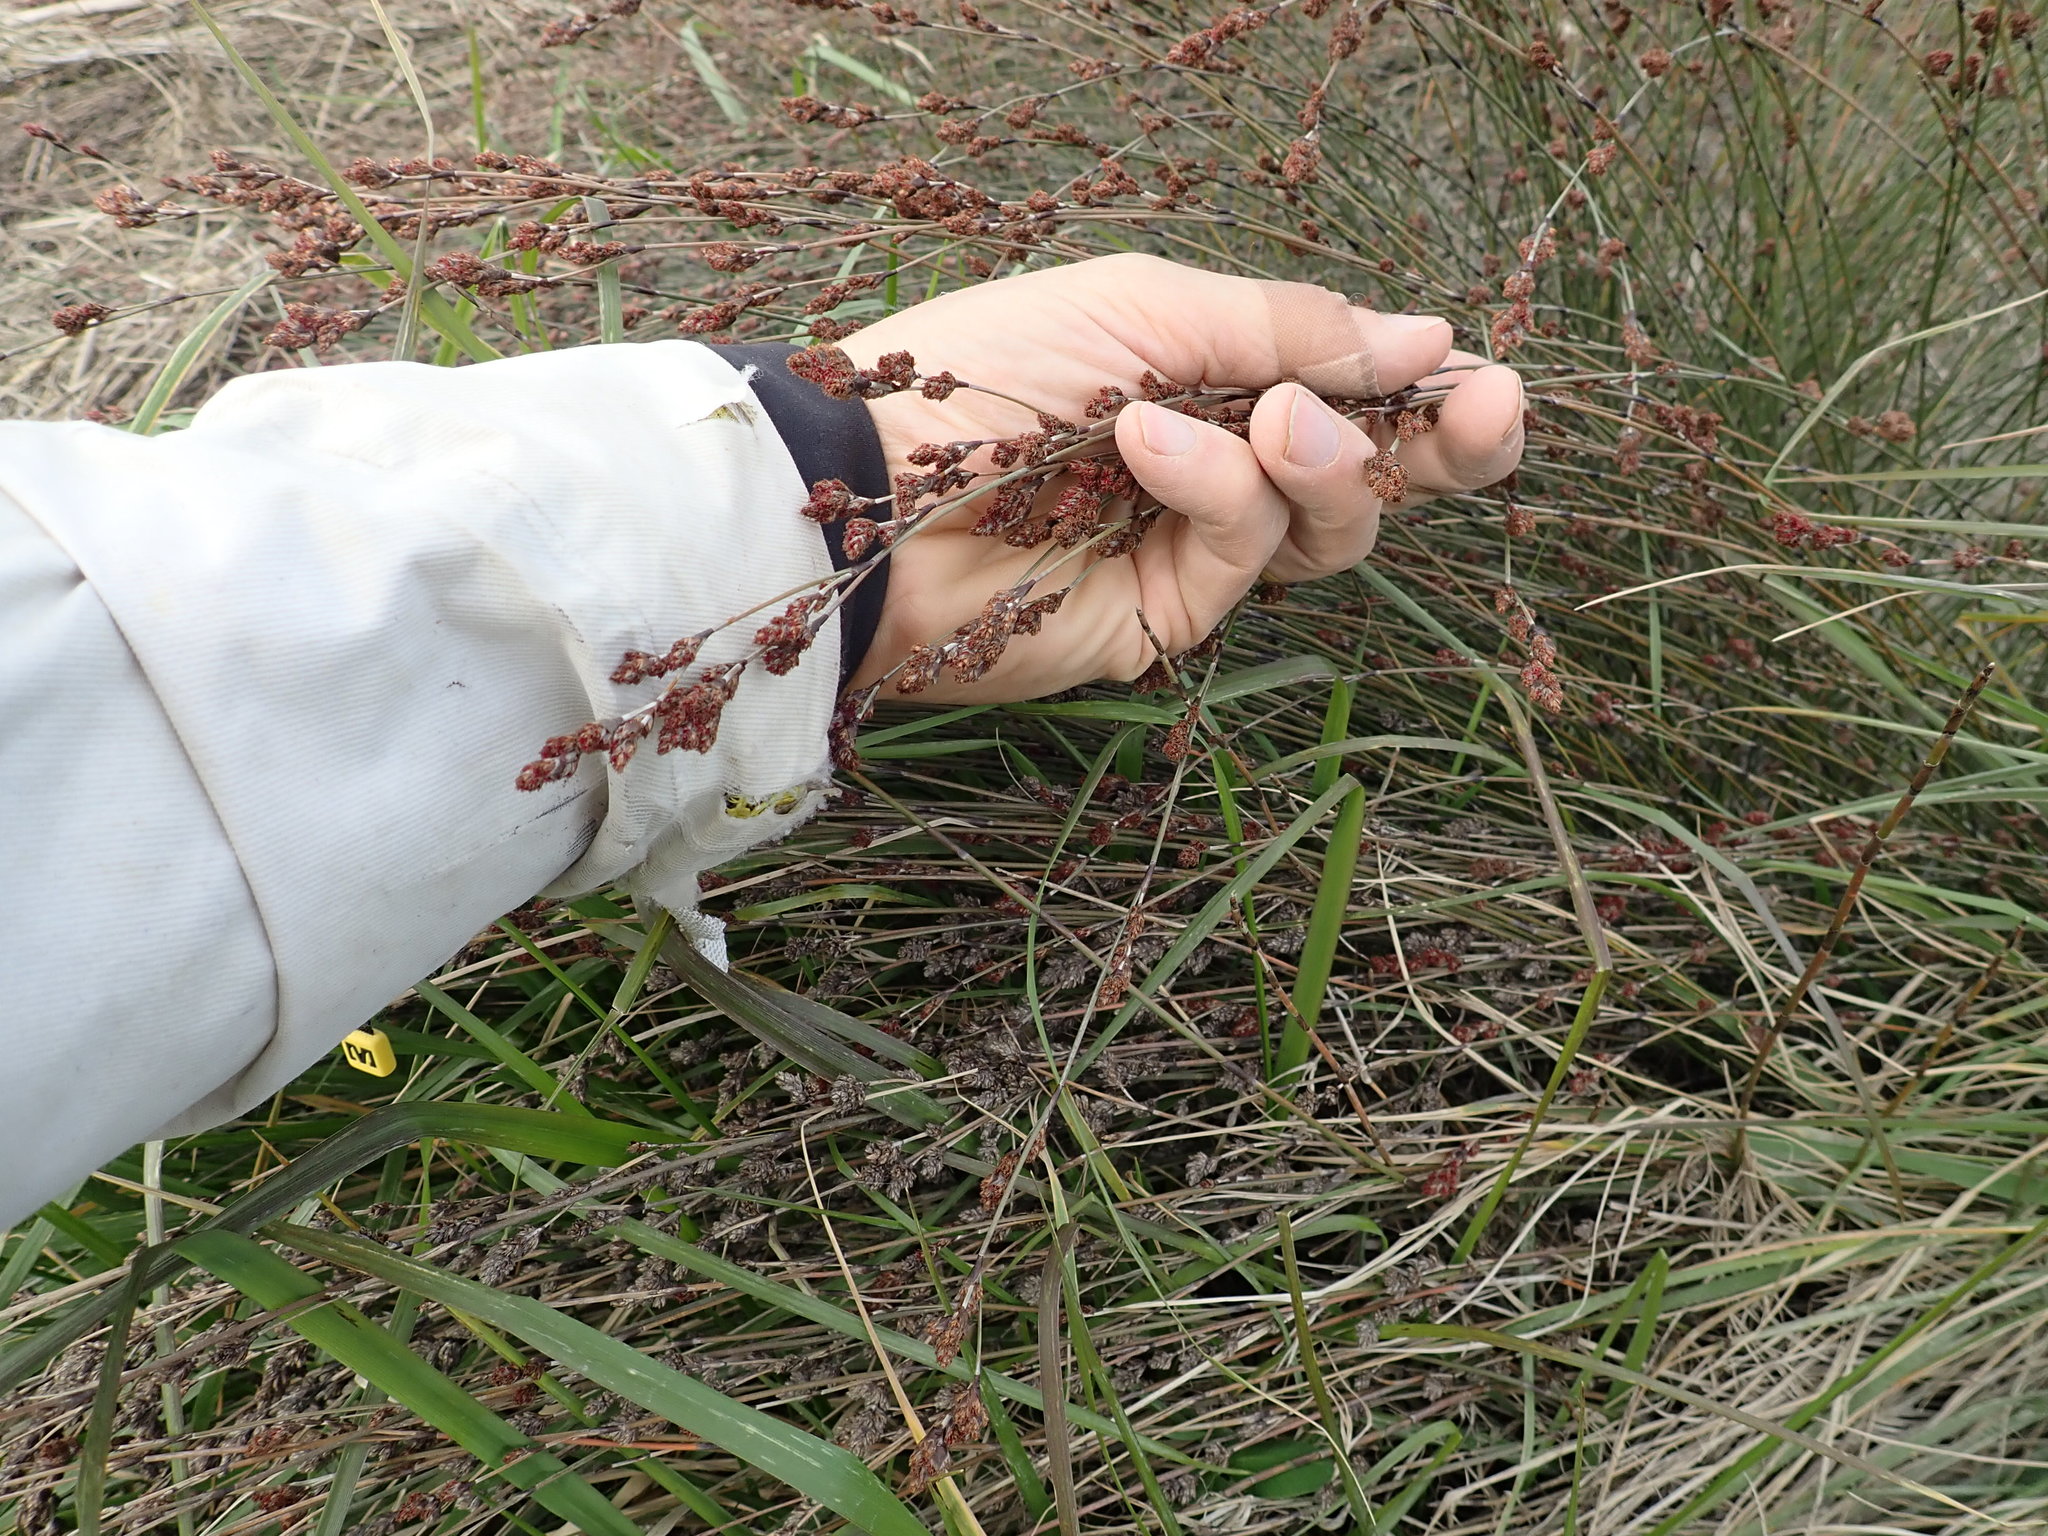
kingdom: Plantae
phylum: Tracheophyta
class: Liliopsida
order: Poales
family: Restionaceae
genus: Apodasmia
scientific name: Apodasmia similis
